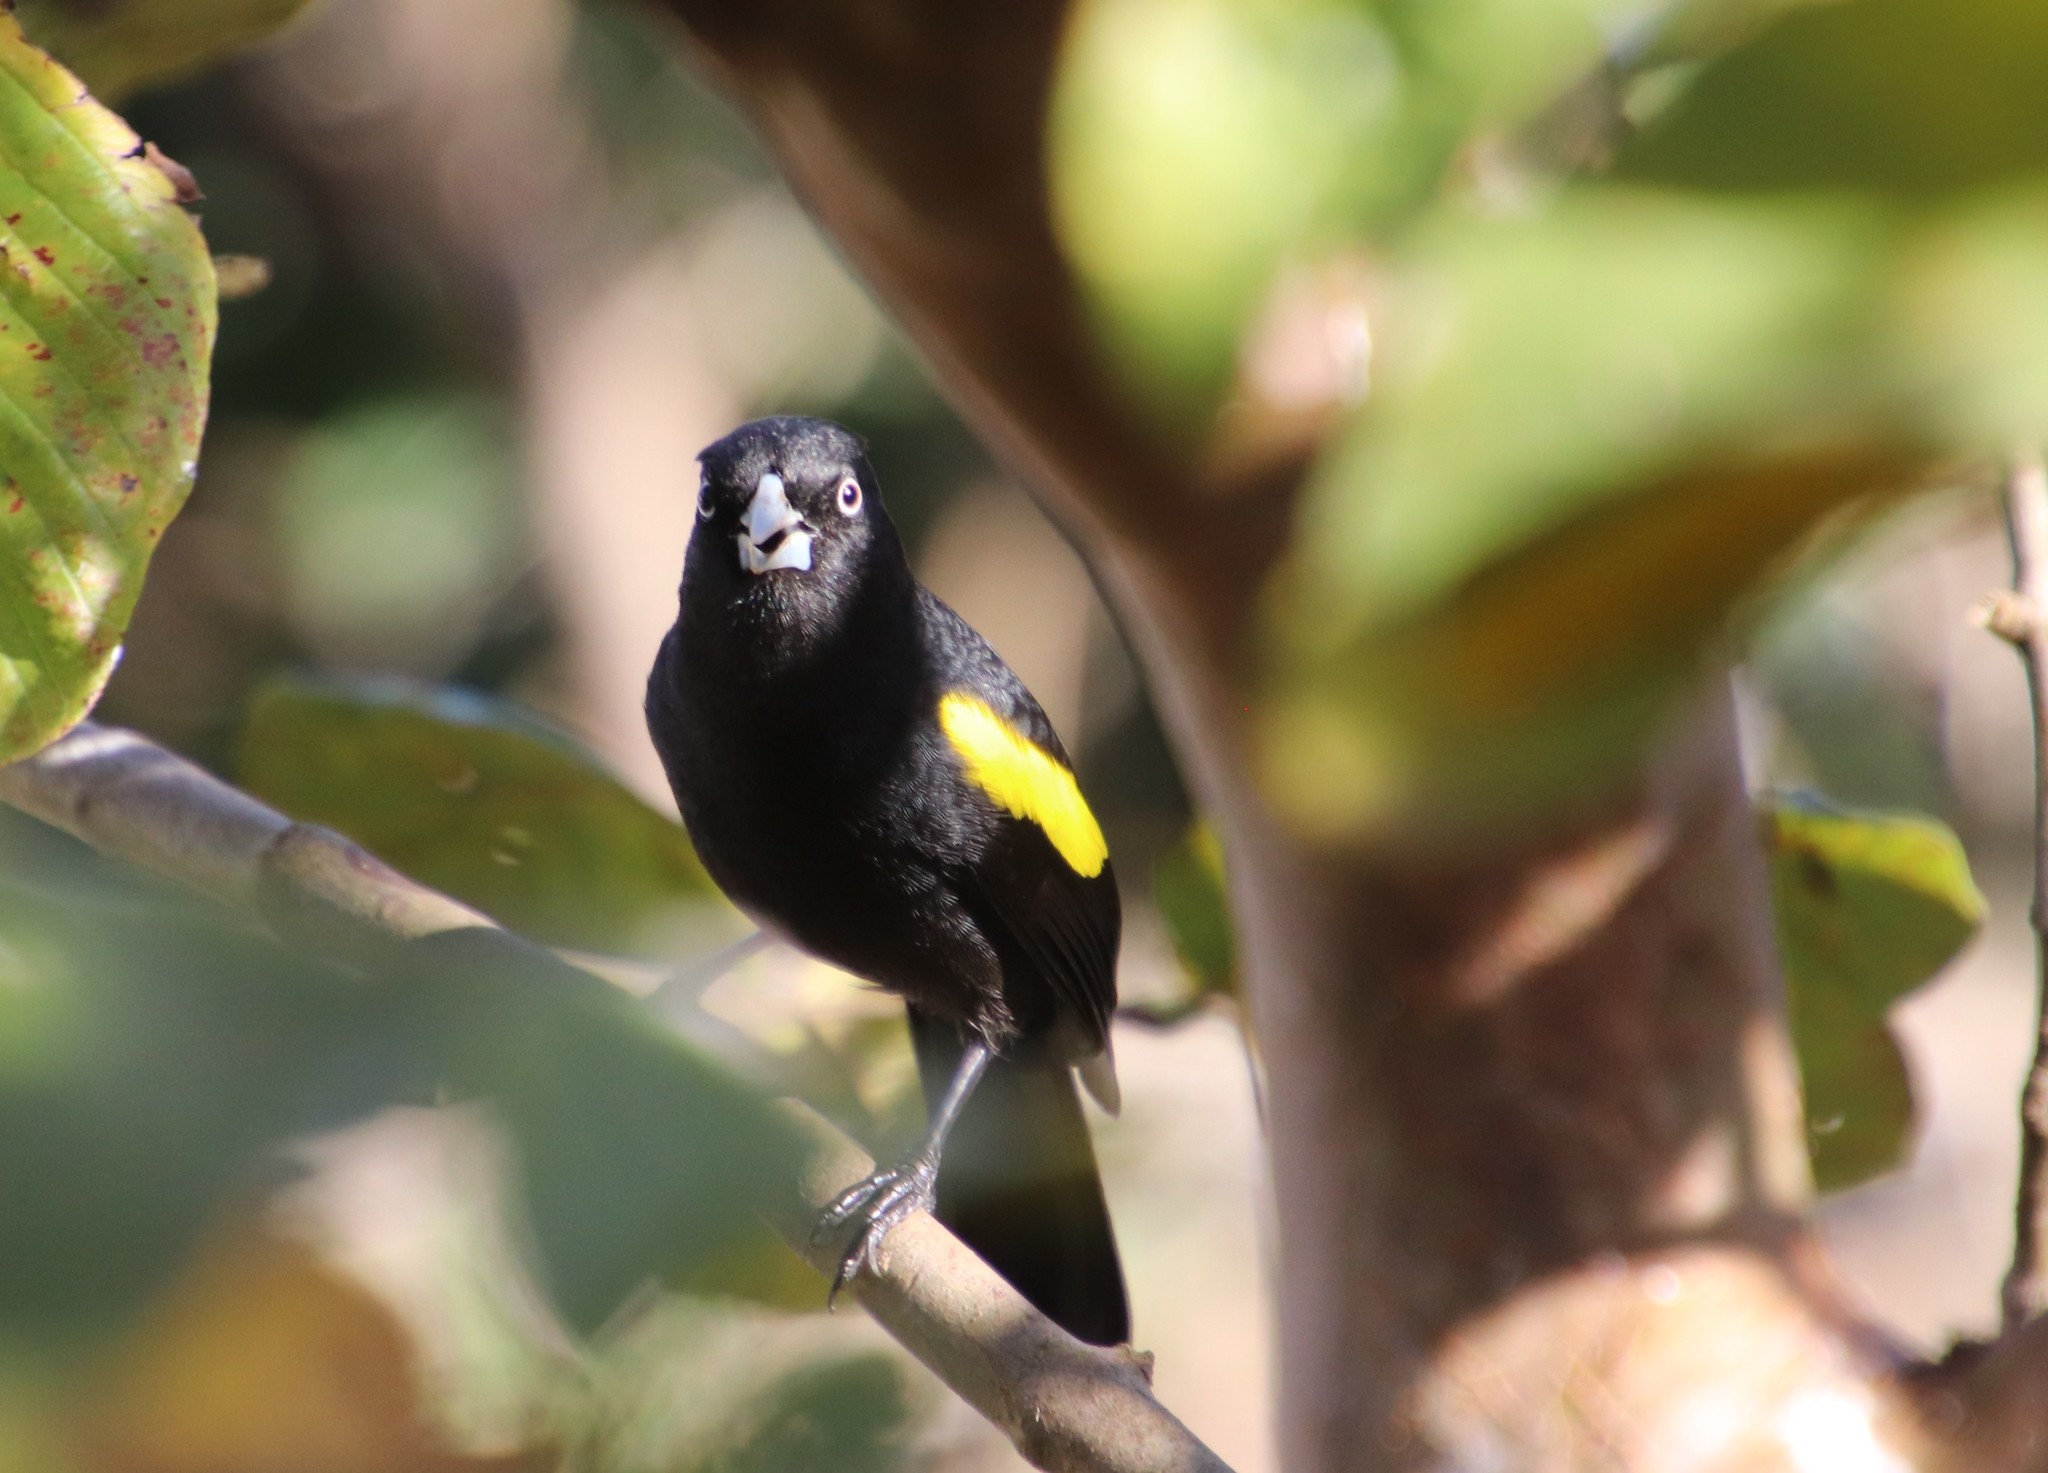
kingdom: Animalia
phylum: Chordata
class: Aves
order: Passeriformes
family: Icteridae
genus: Cacicus
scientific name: Cacicus chrysopterus
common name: Golden-winged cacique
